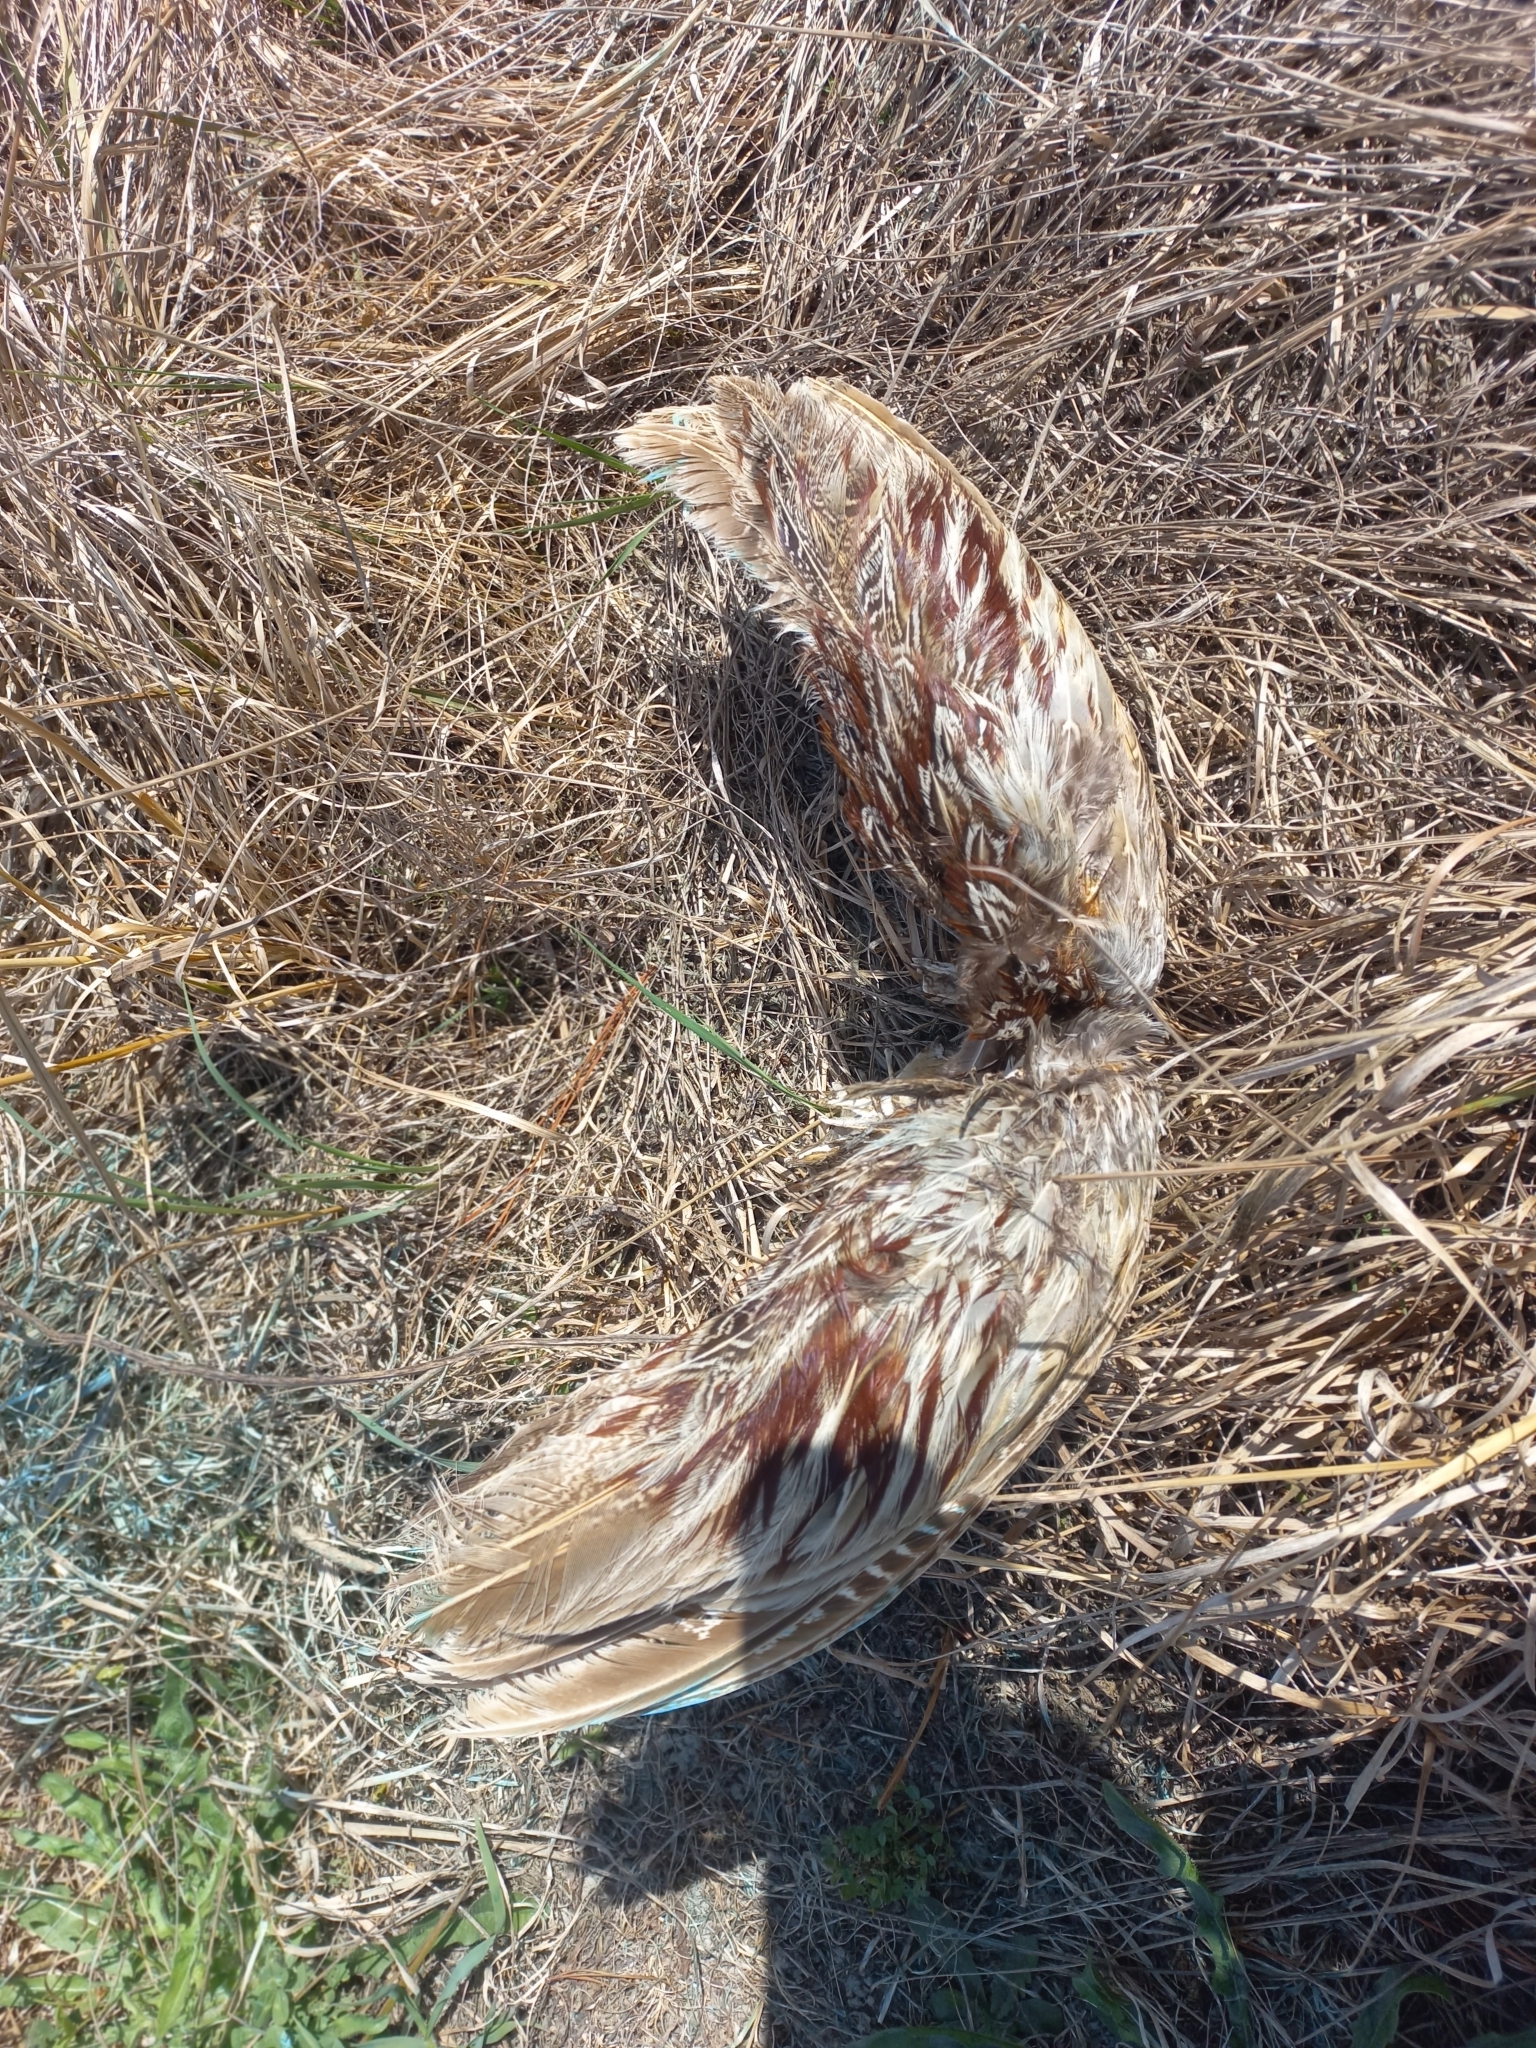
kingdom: Animalia
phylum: Chordata
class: Aves
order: Galliformes
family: Phasianidae
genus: Phasianus
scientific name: Phasianus colchicus
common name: Common pheasant
